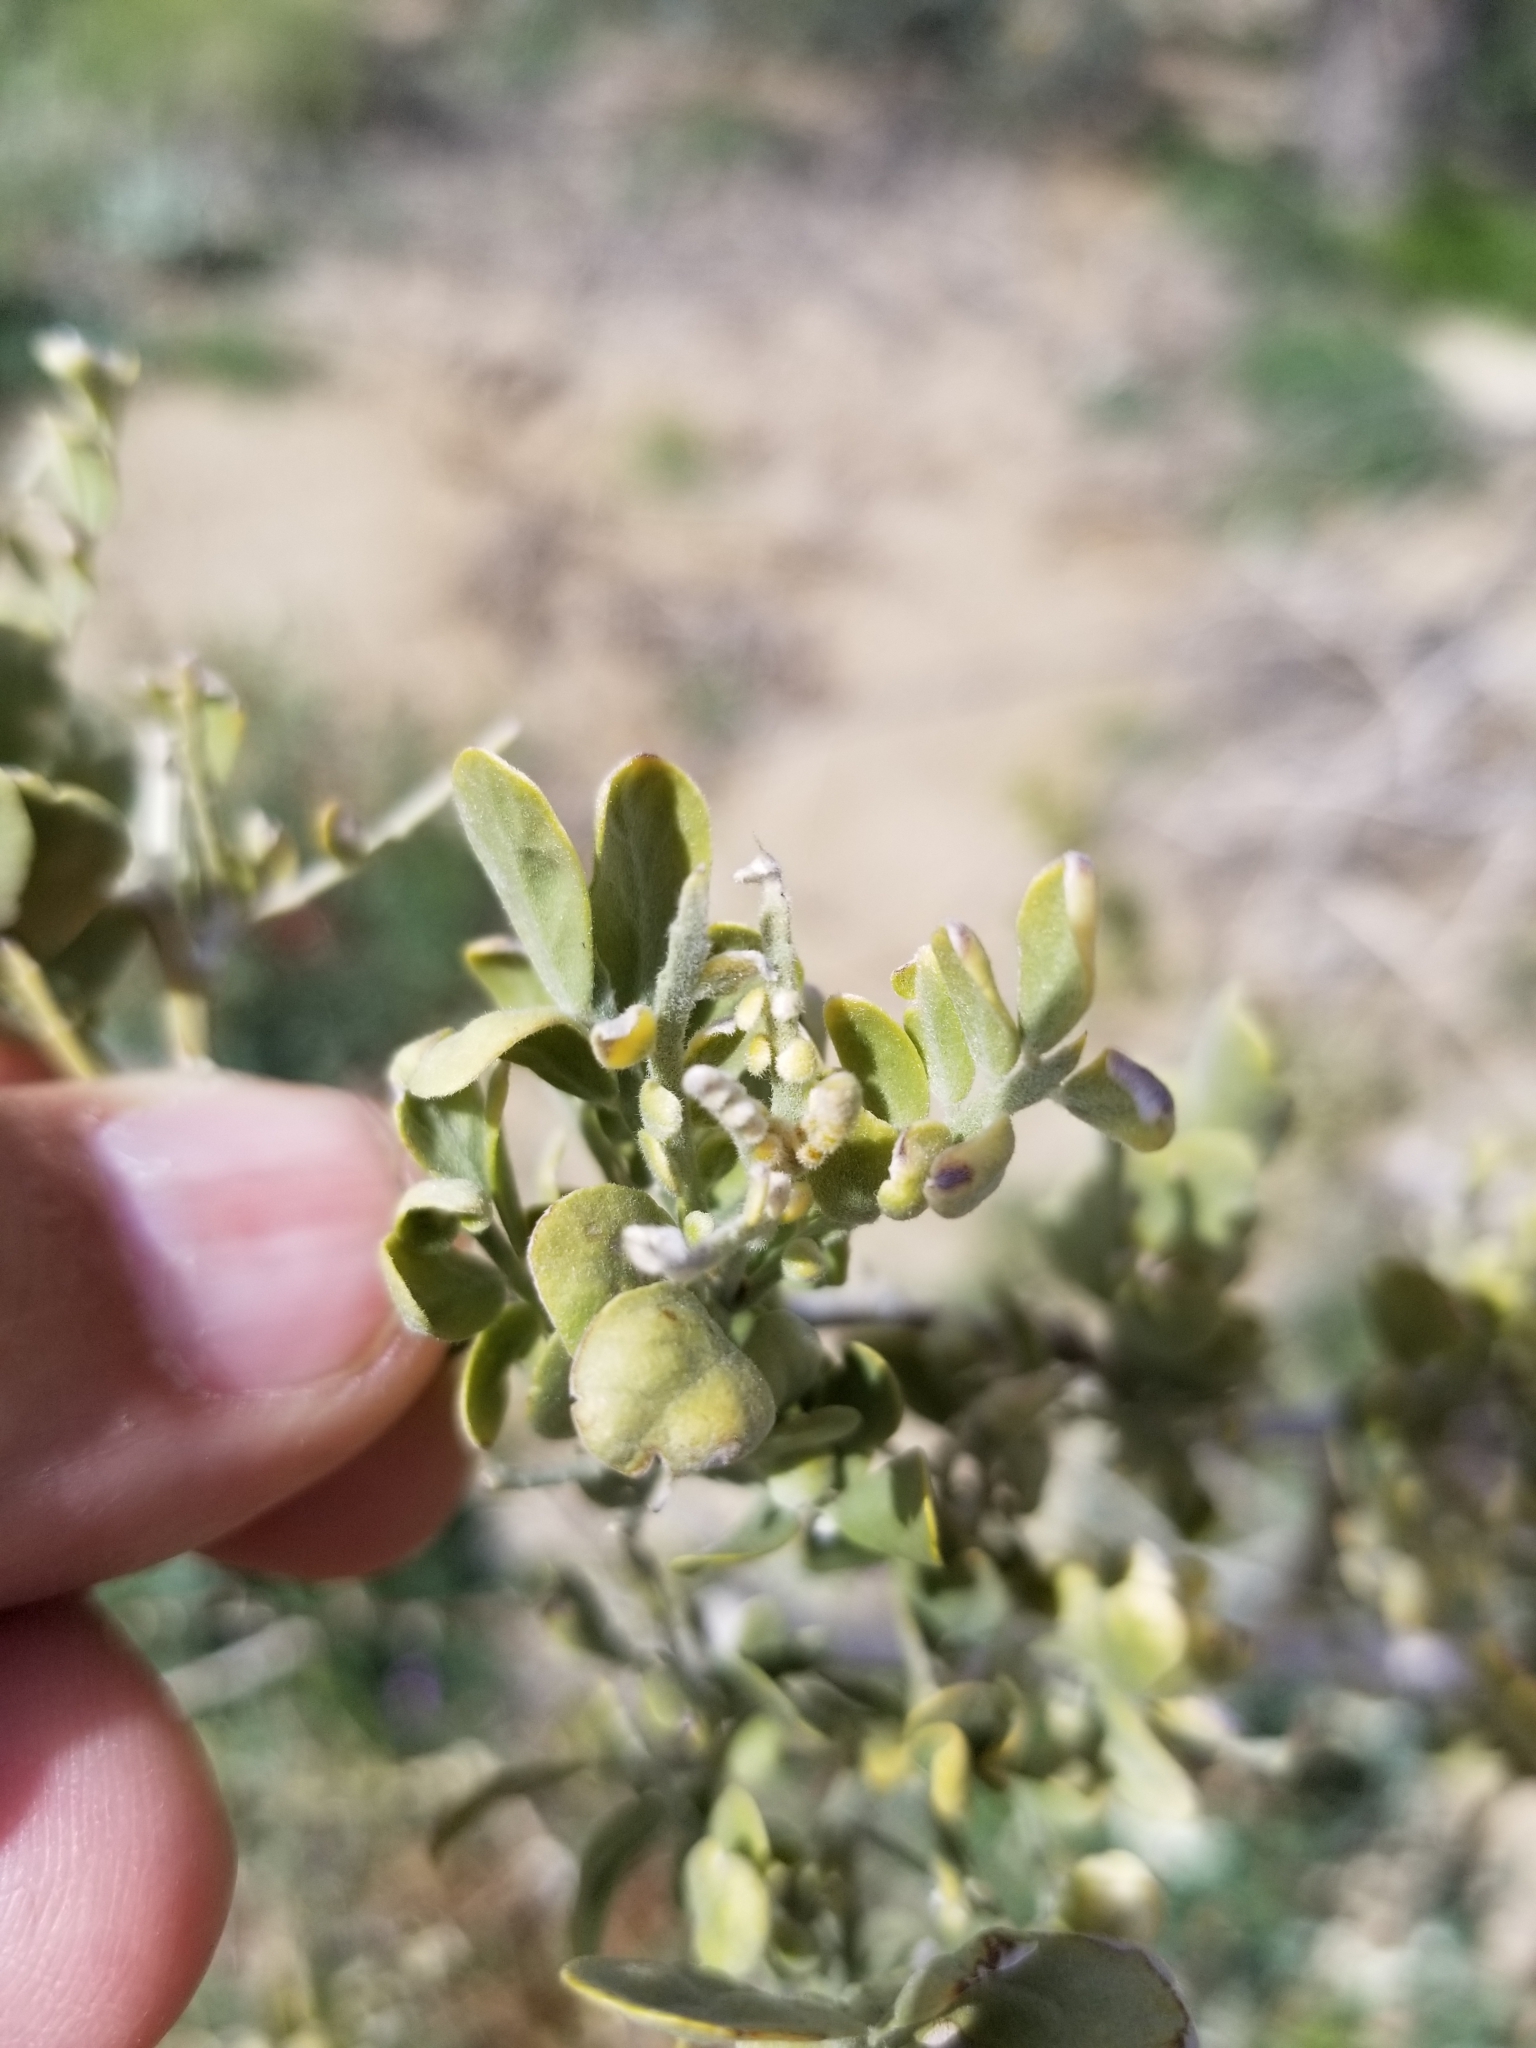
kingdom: Plantae
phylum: Tracheophyta
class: Magnoliopsida
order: Fabales
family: Fabaceae
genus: Olneya
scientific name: Olneya tesota
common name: Desert ironwood
